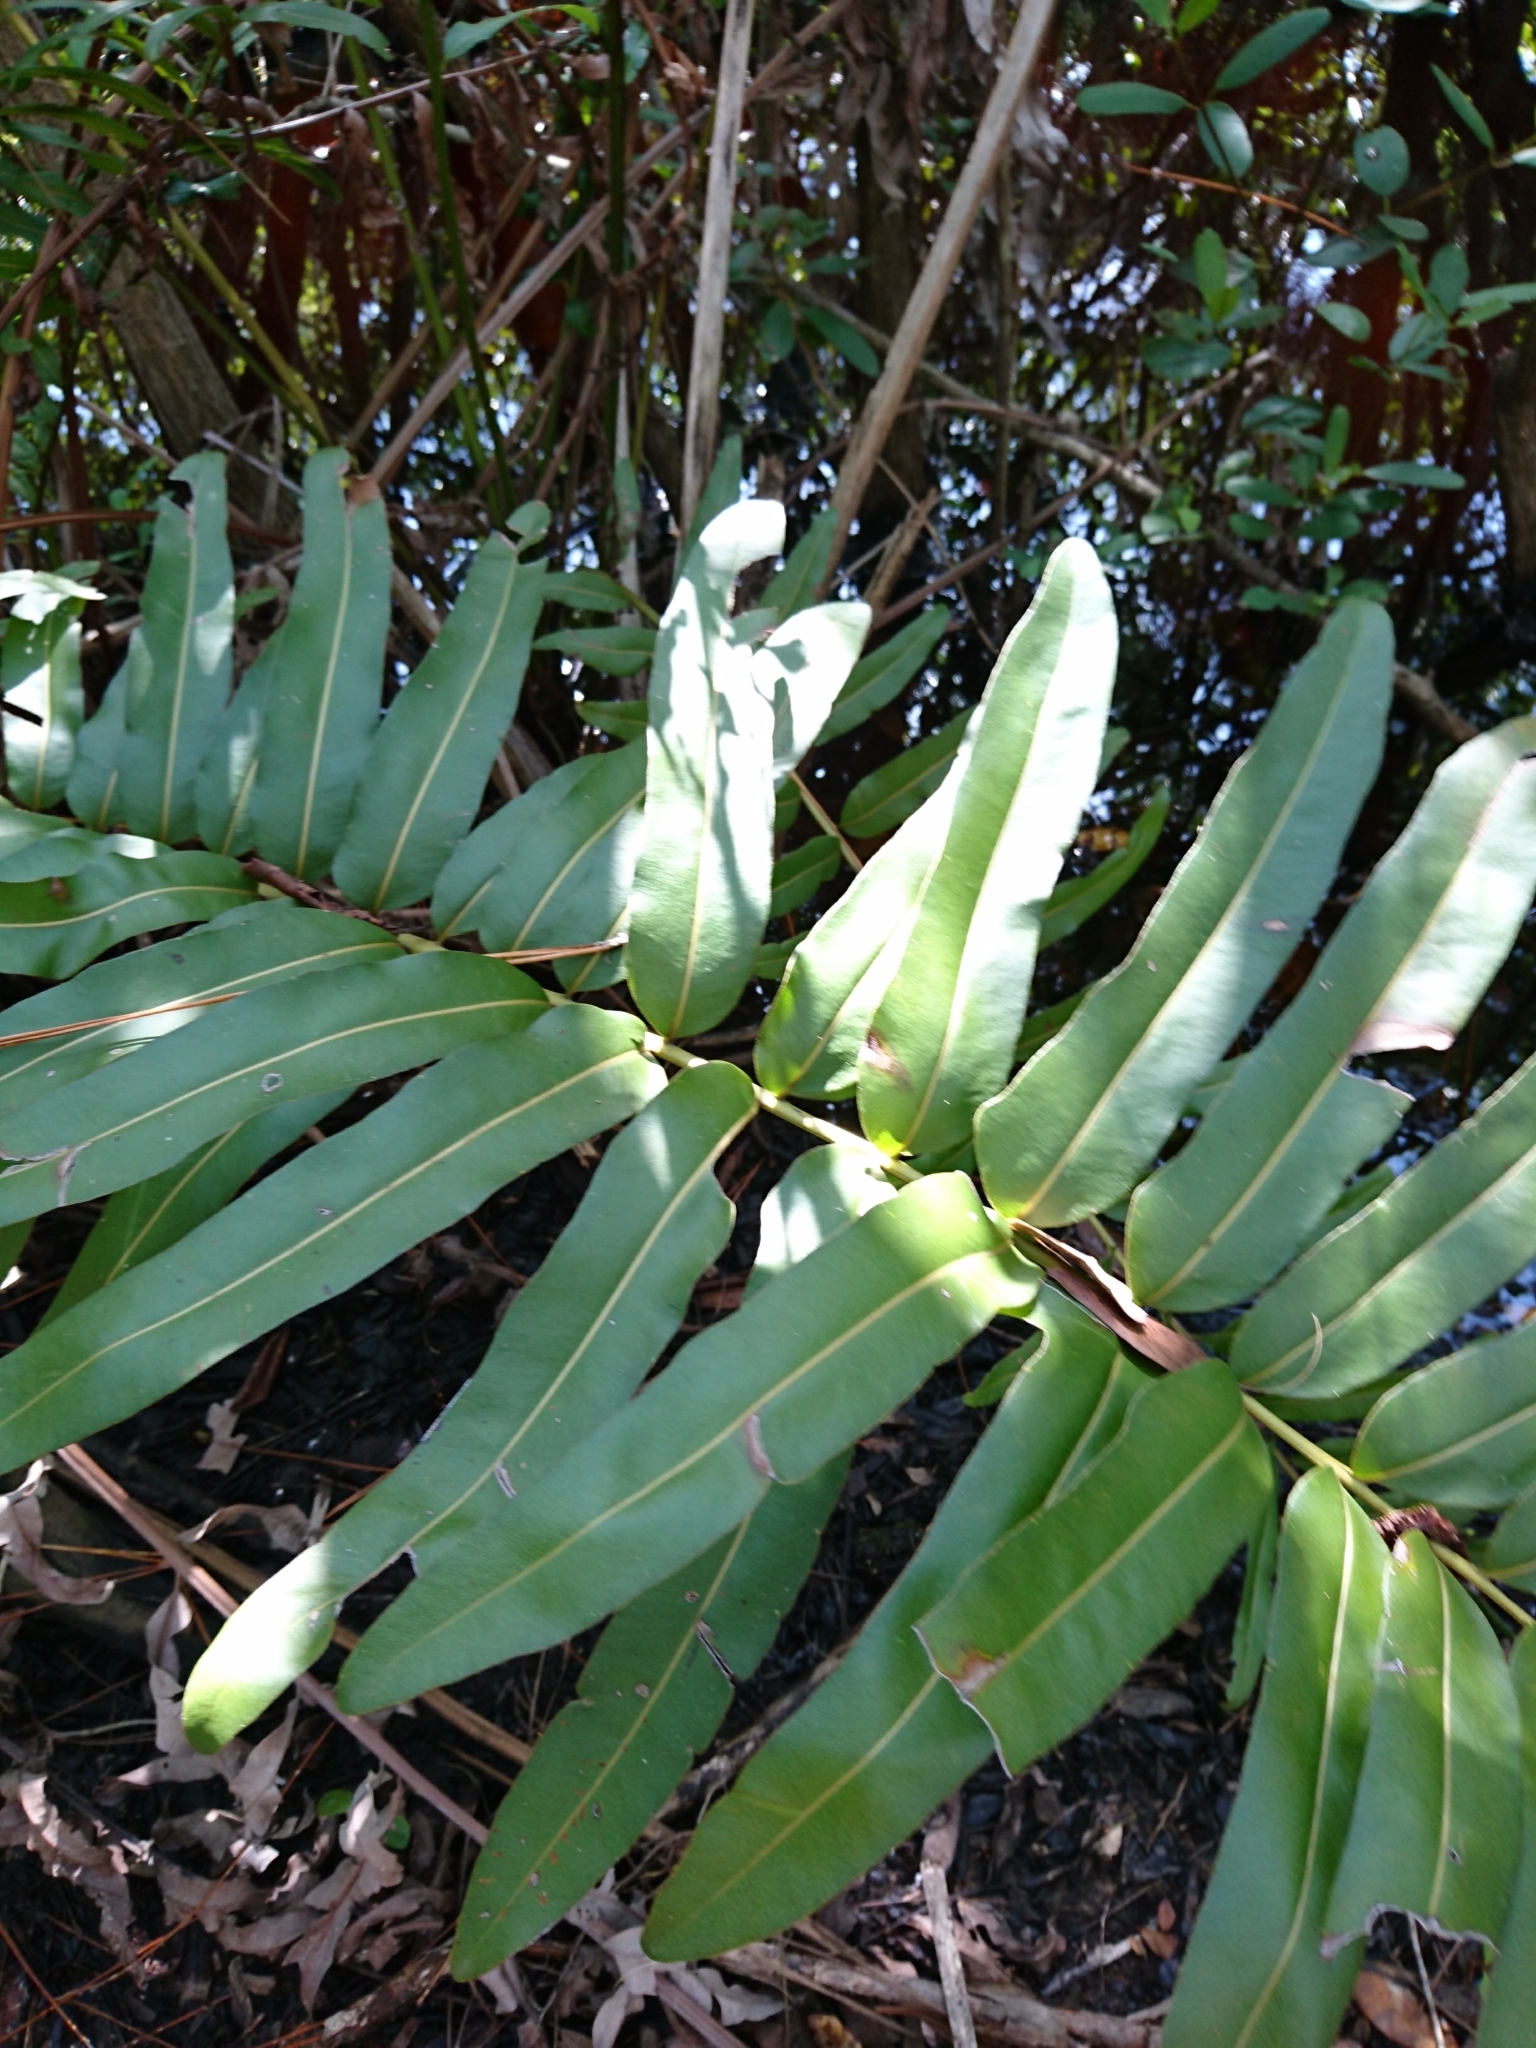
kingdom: Plantae
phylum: Tracheophyta
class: Polypodiopsida
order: Polypodiales
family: Pteridaceae
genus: Acrostichum
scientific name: Acrostichum danaeifolium
